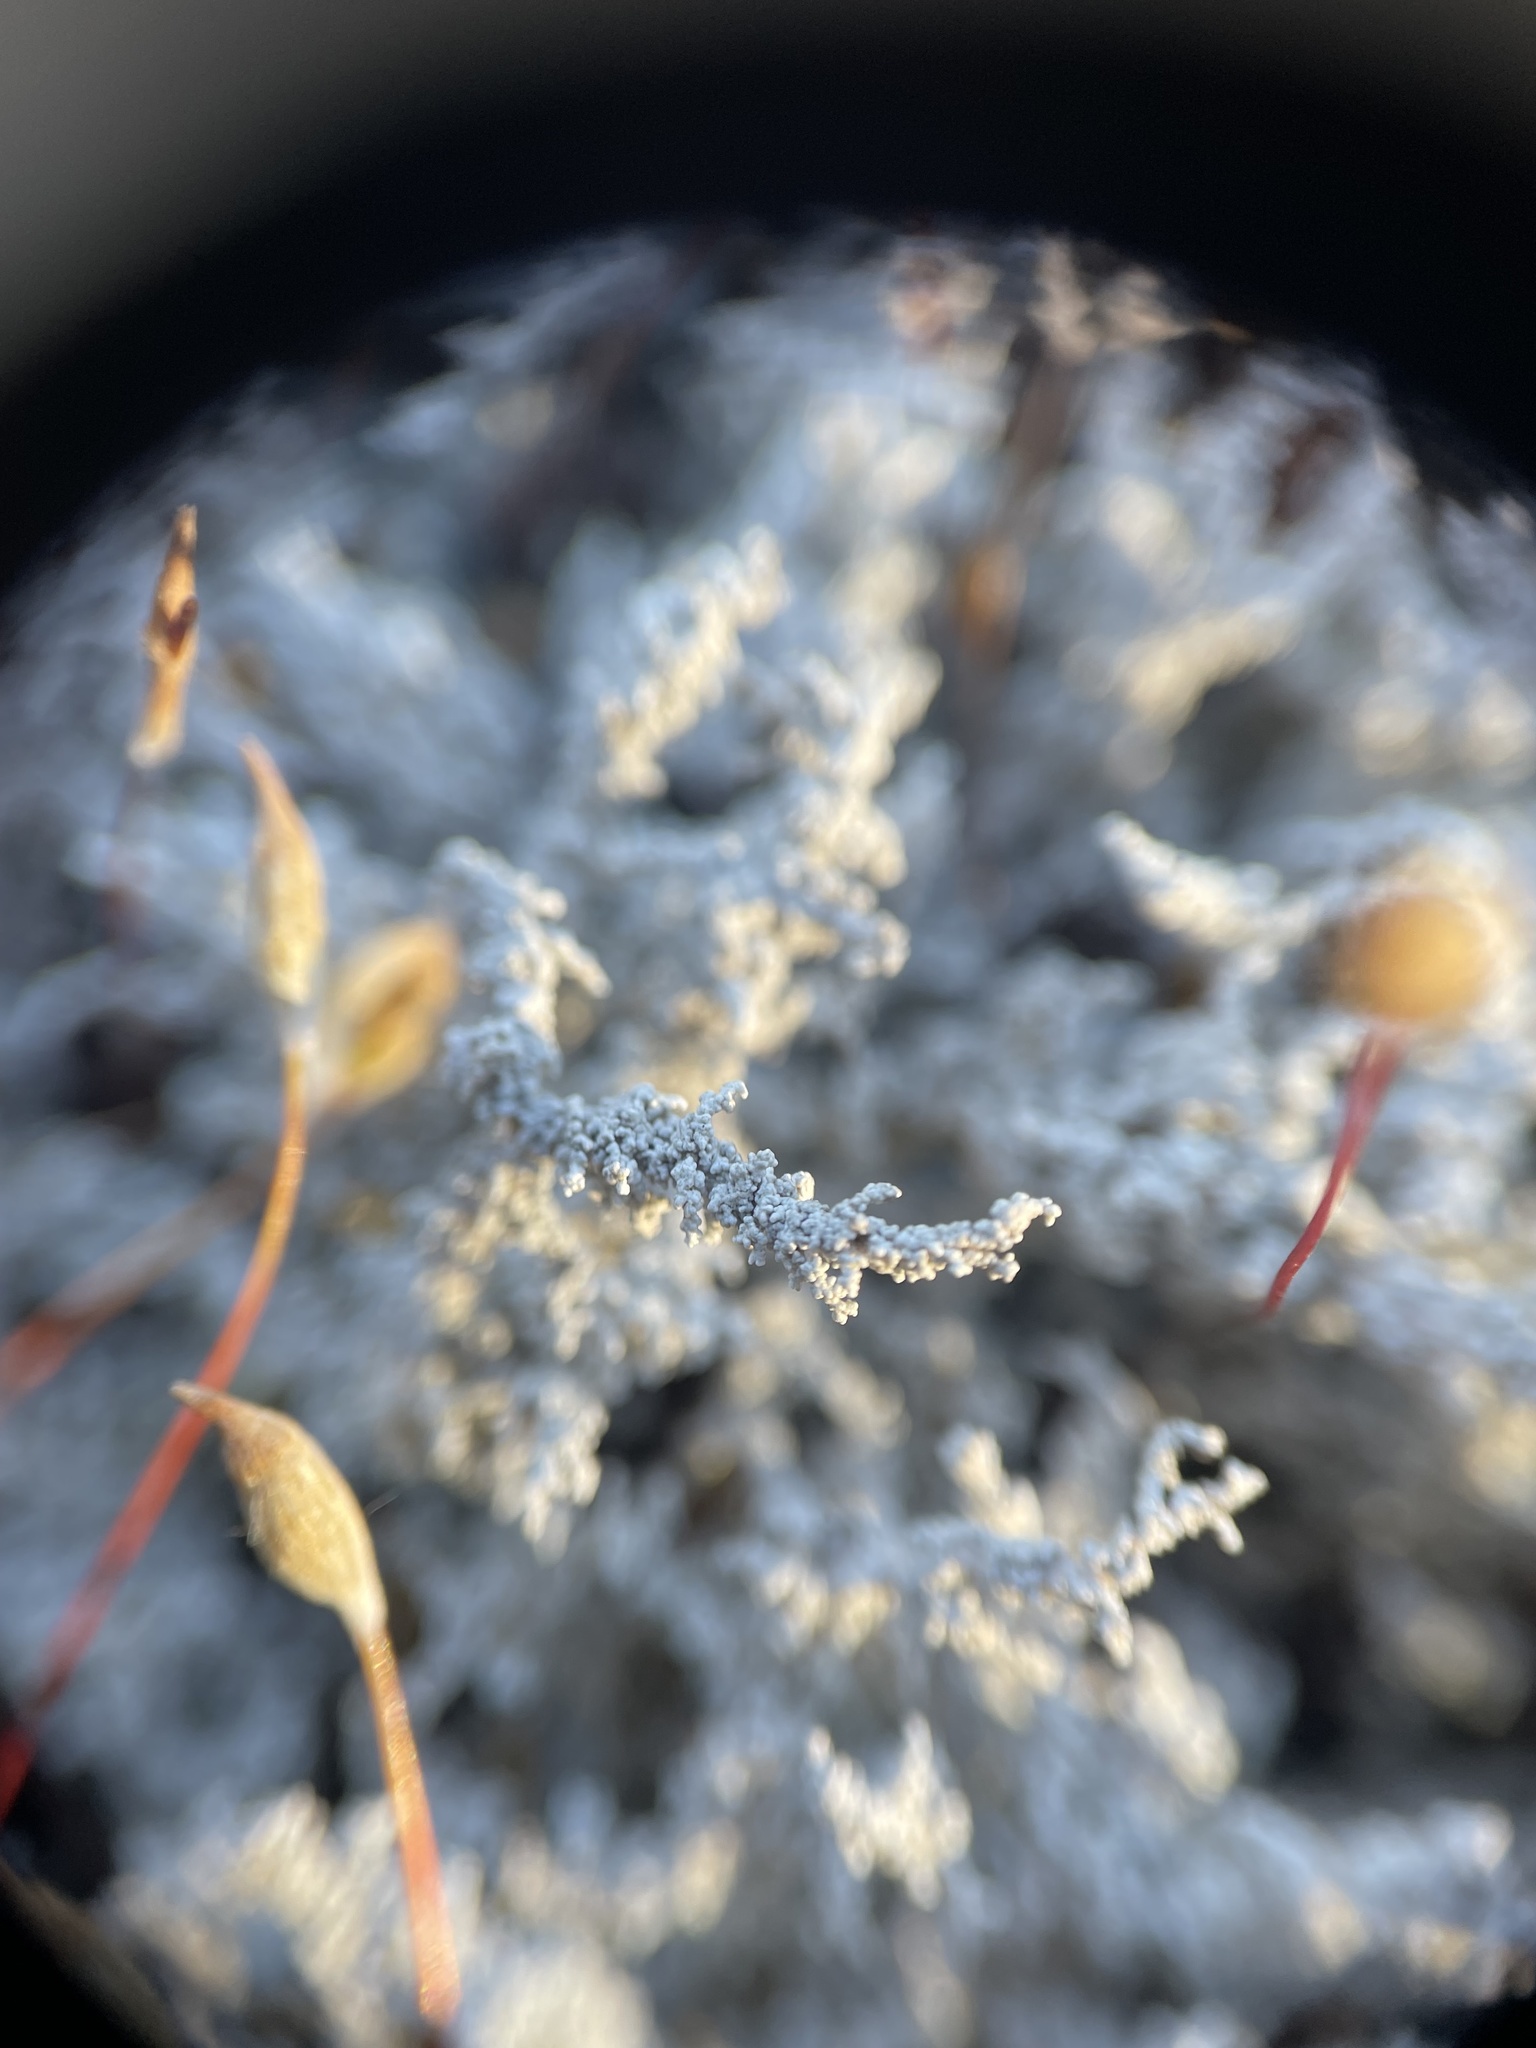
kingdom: Fungi
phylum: Ascomycota
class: Lecanoromycetes
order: Lecanorales
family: Stereocaulaceae
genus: Stereocaulon
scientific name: Stereocaulon saxatile
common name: Rock foam
